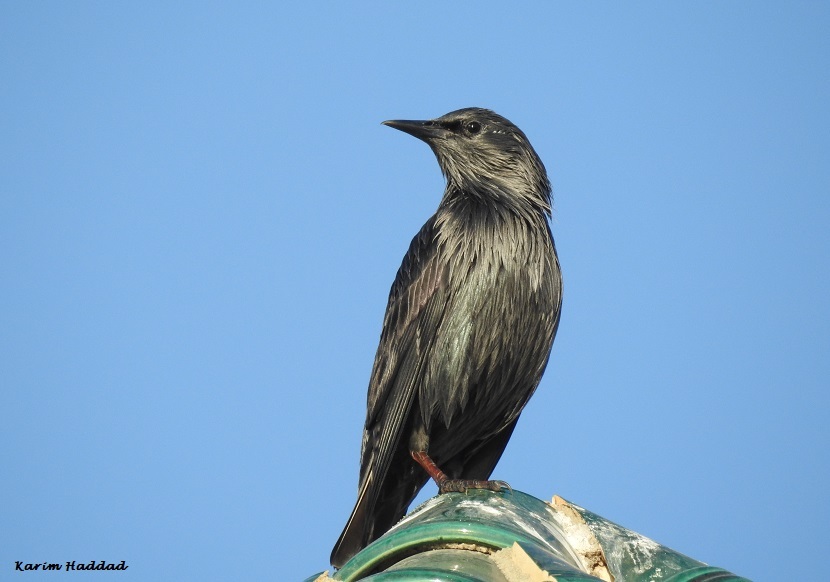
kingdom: Animalia
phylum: Chordata
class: Aves
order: Passeriformes
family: Sturnidae
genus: Sturnus
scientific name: Sturnus unicolor
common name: Spotless starling
